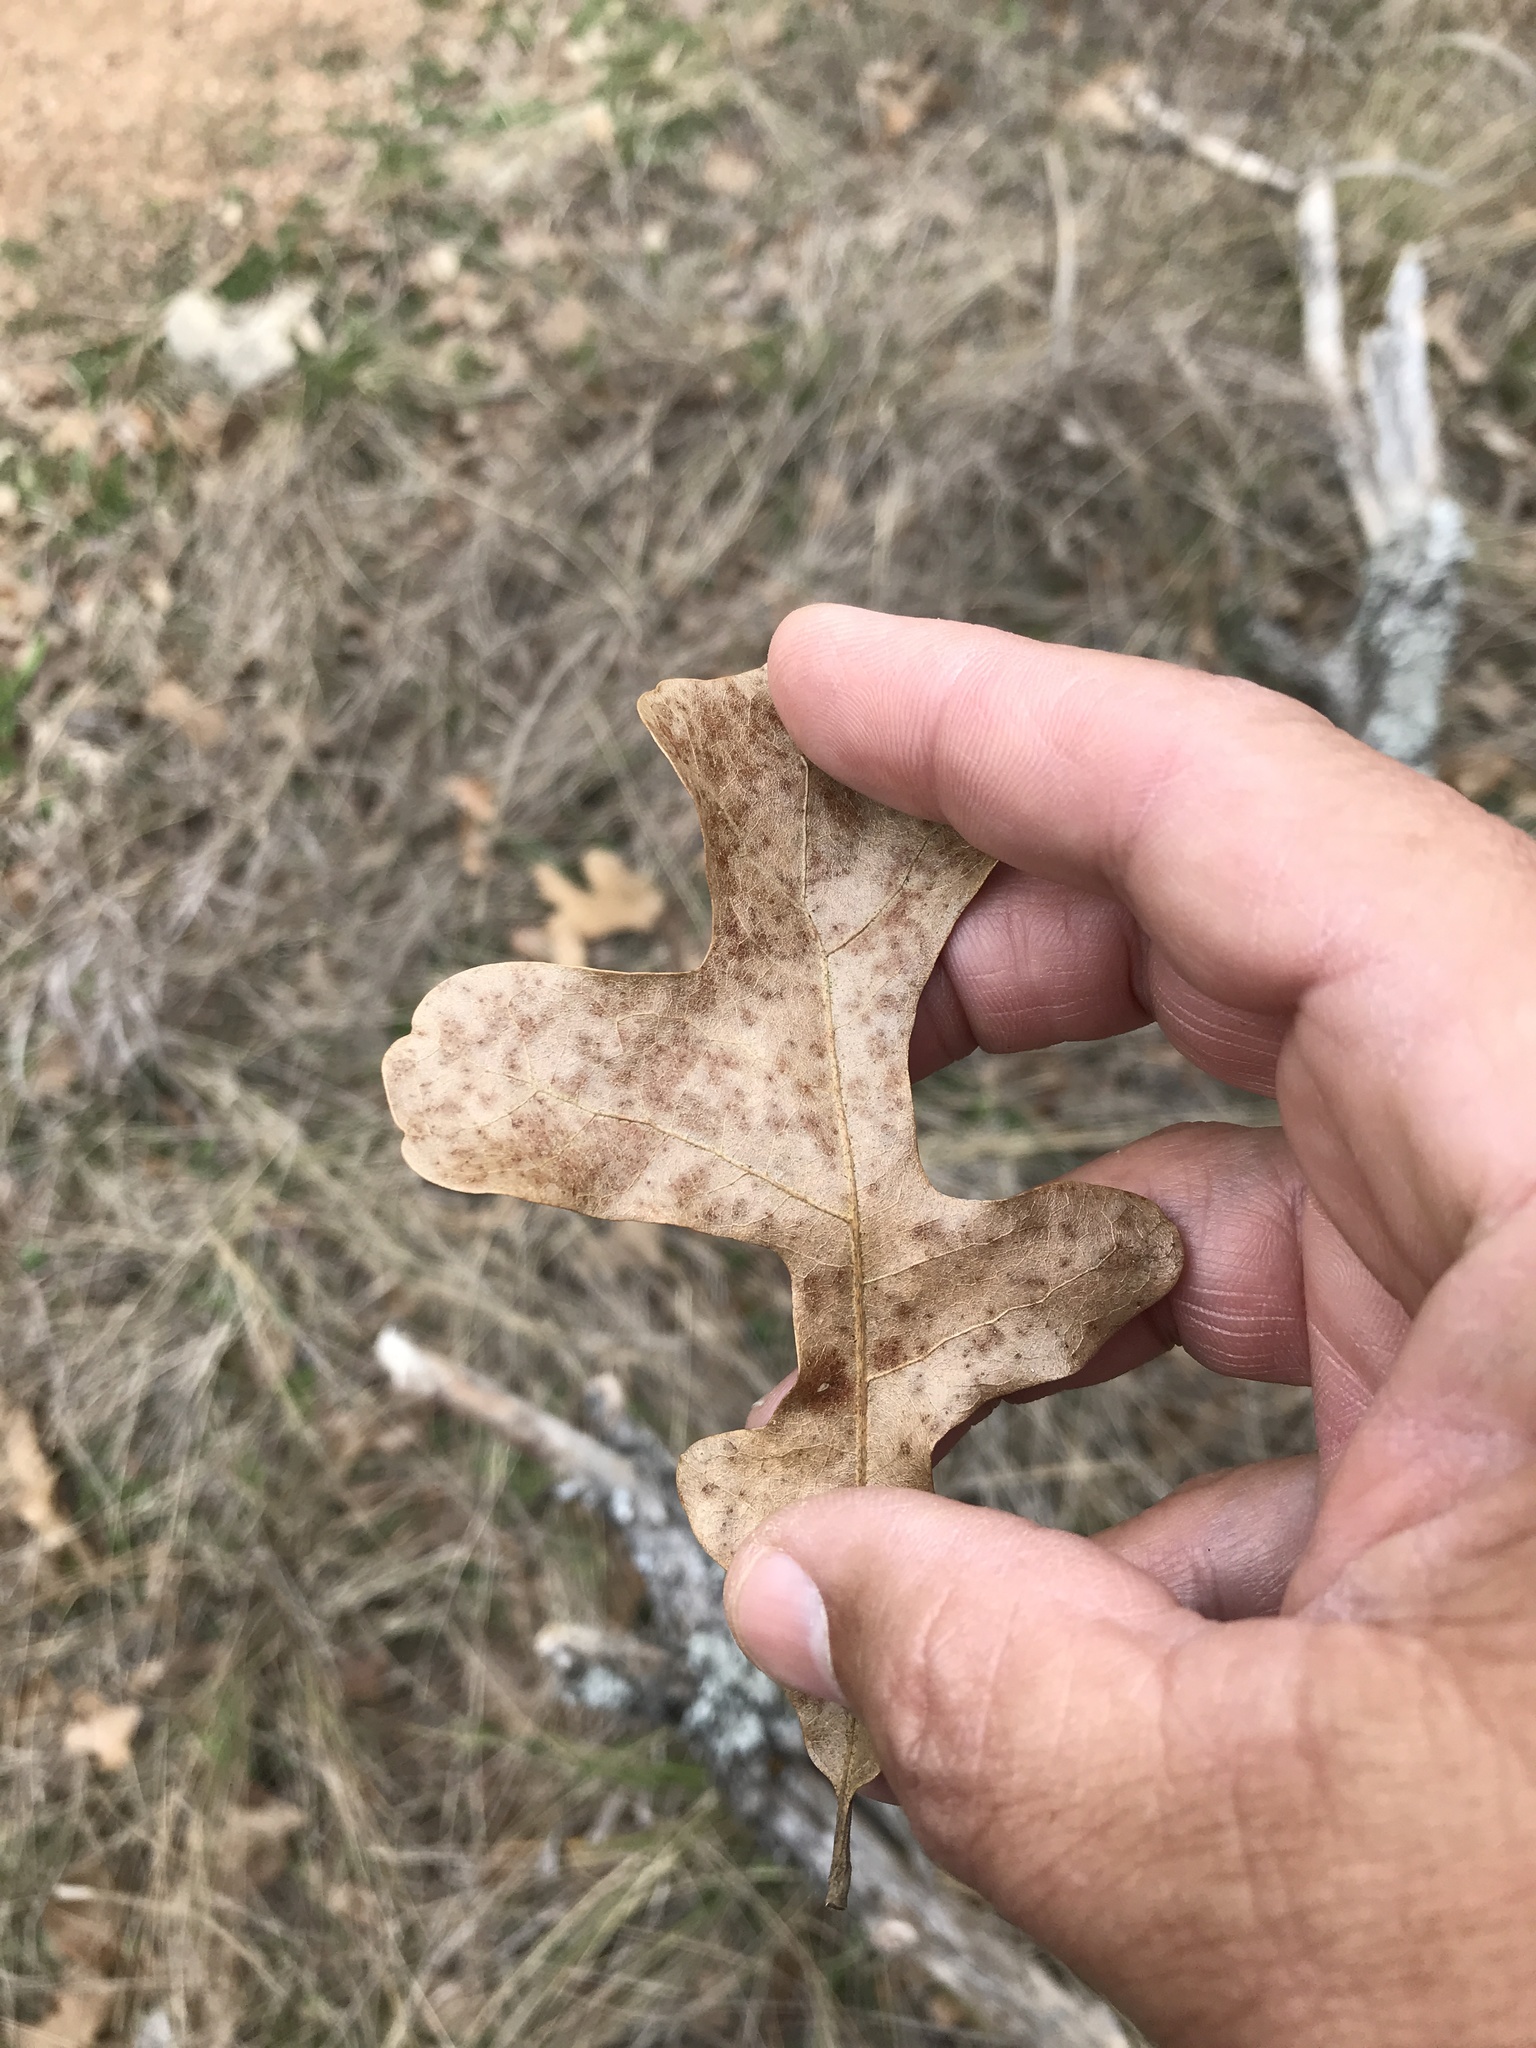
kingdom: Plantae
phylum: Tracheophyta
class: Magnoliopsida
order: Fagales
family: Fagaceae
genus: Quercus
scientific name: Quercus stellata
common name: Post oak
